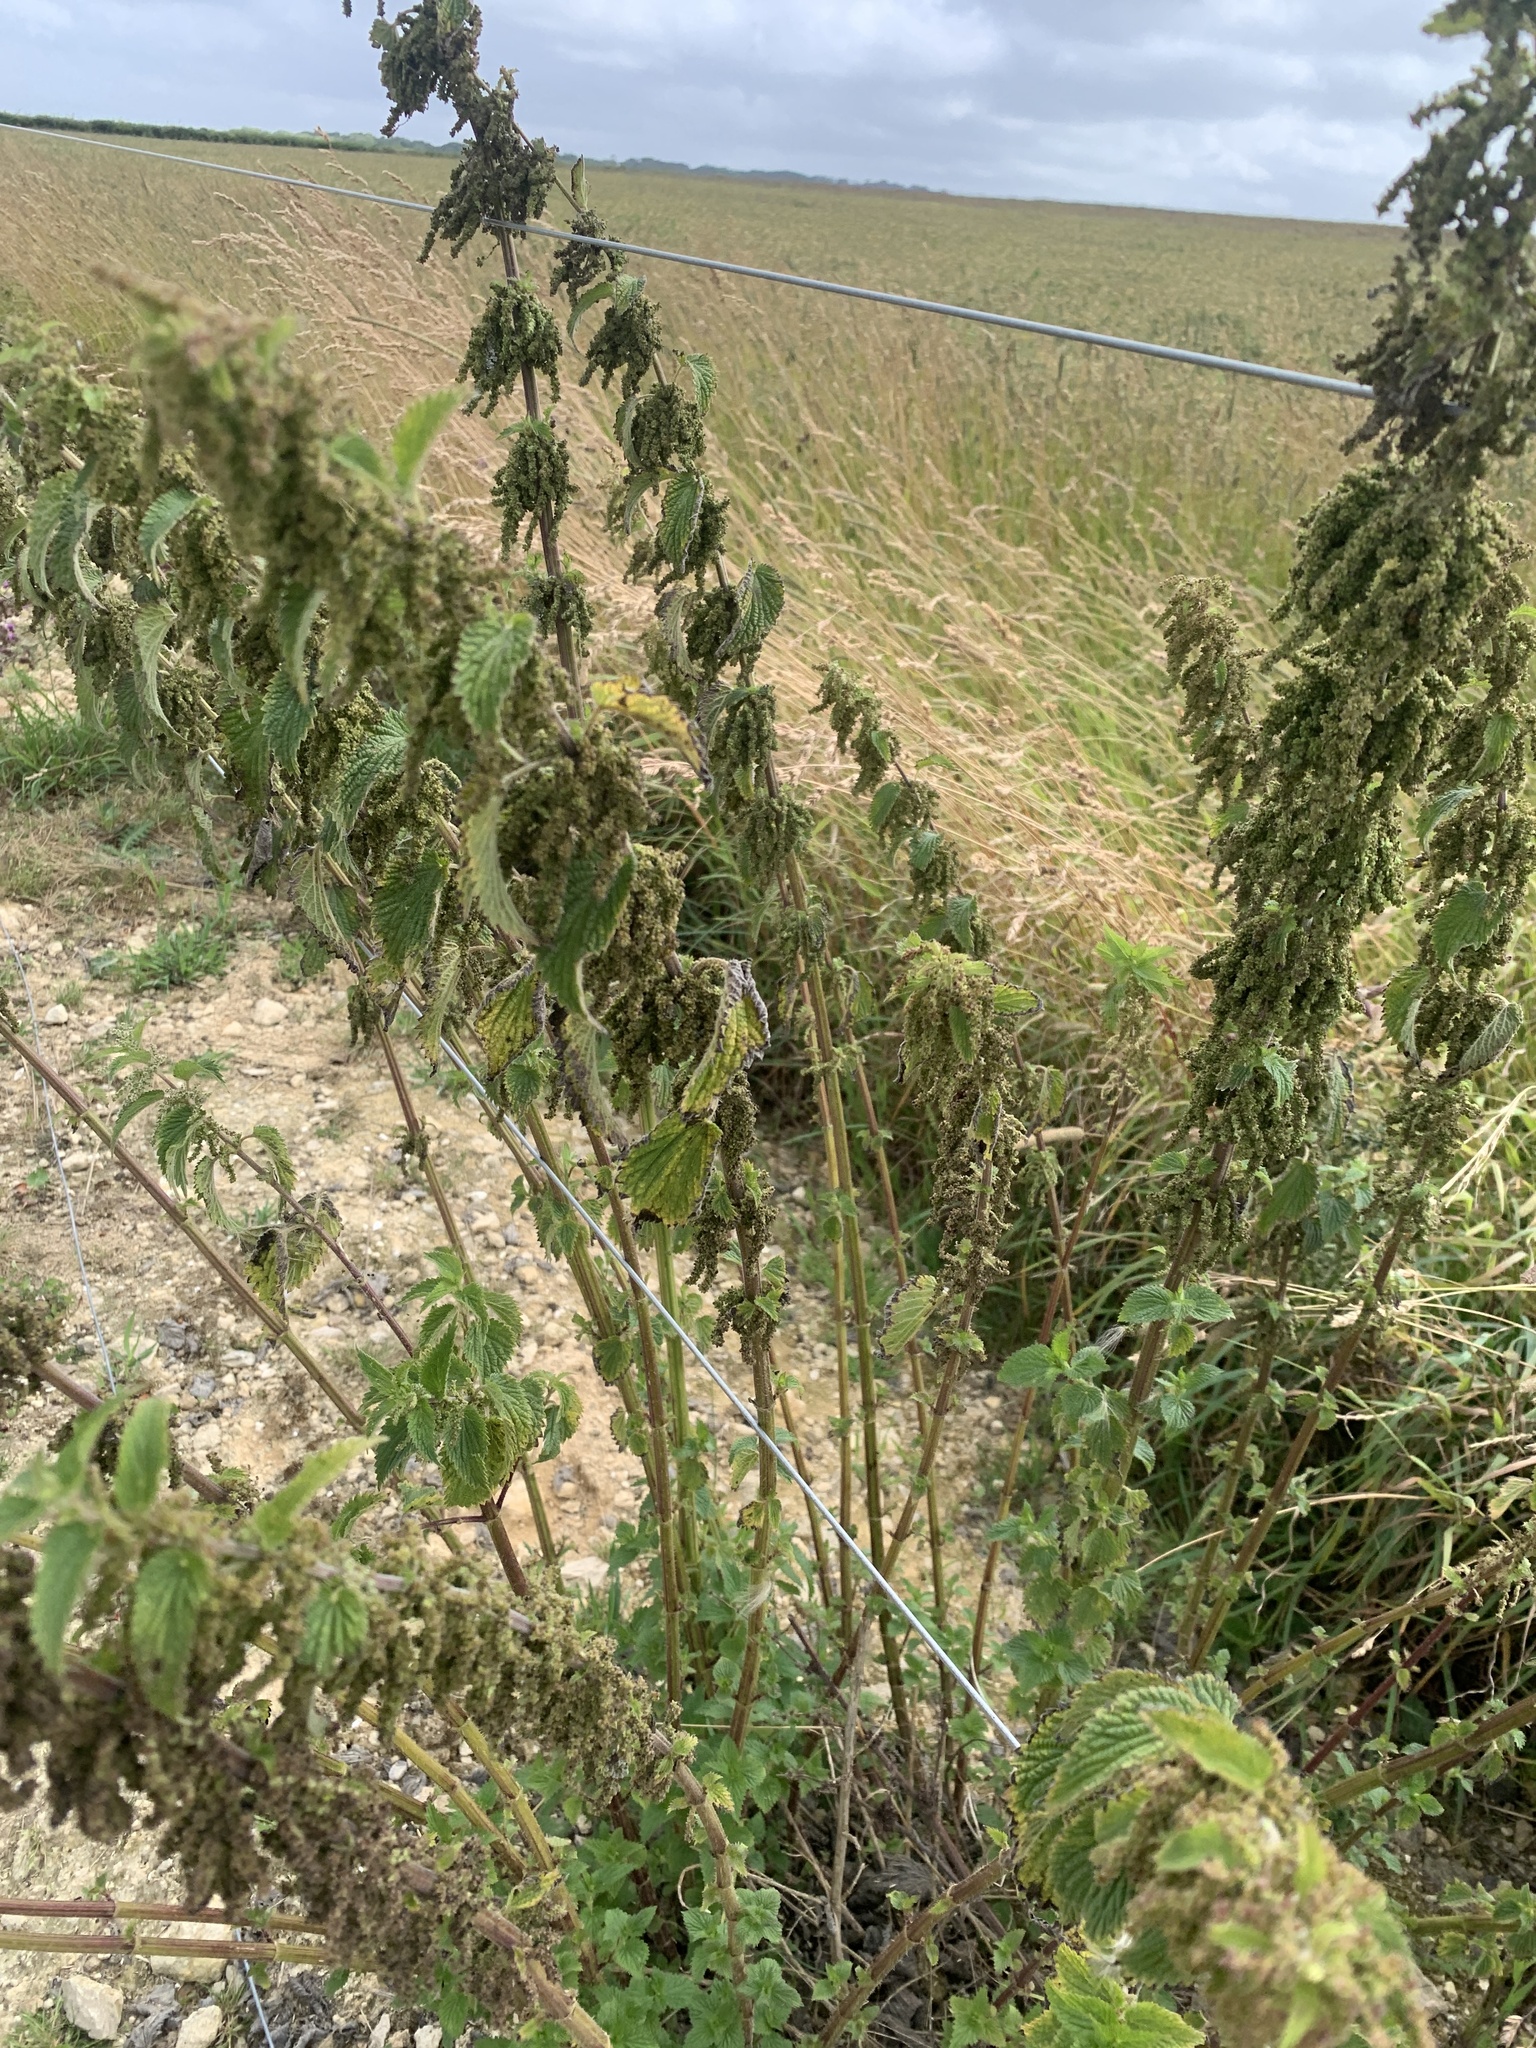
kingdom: Plantae
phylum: Tracheophyta
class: Magnoliopsida
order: Rosales
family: Urticaceae
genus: Urtica
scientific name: Urtica dioica
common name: Common nettle
